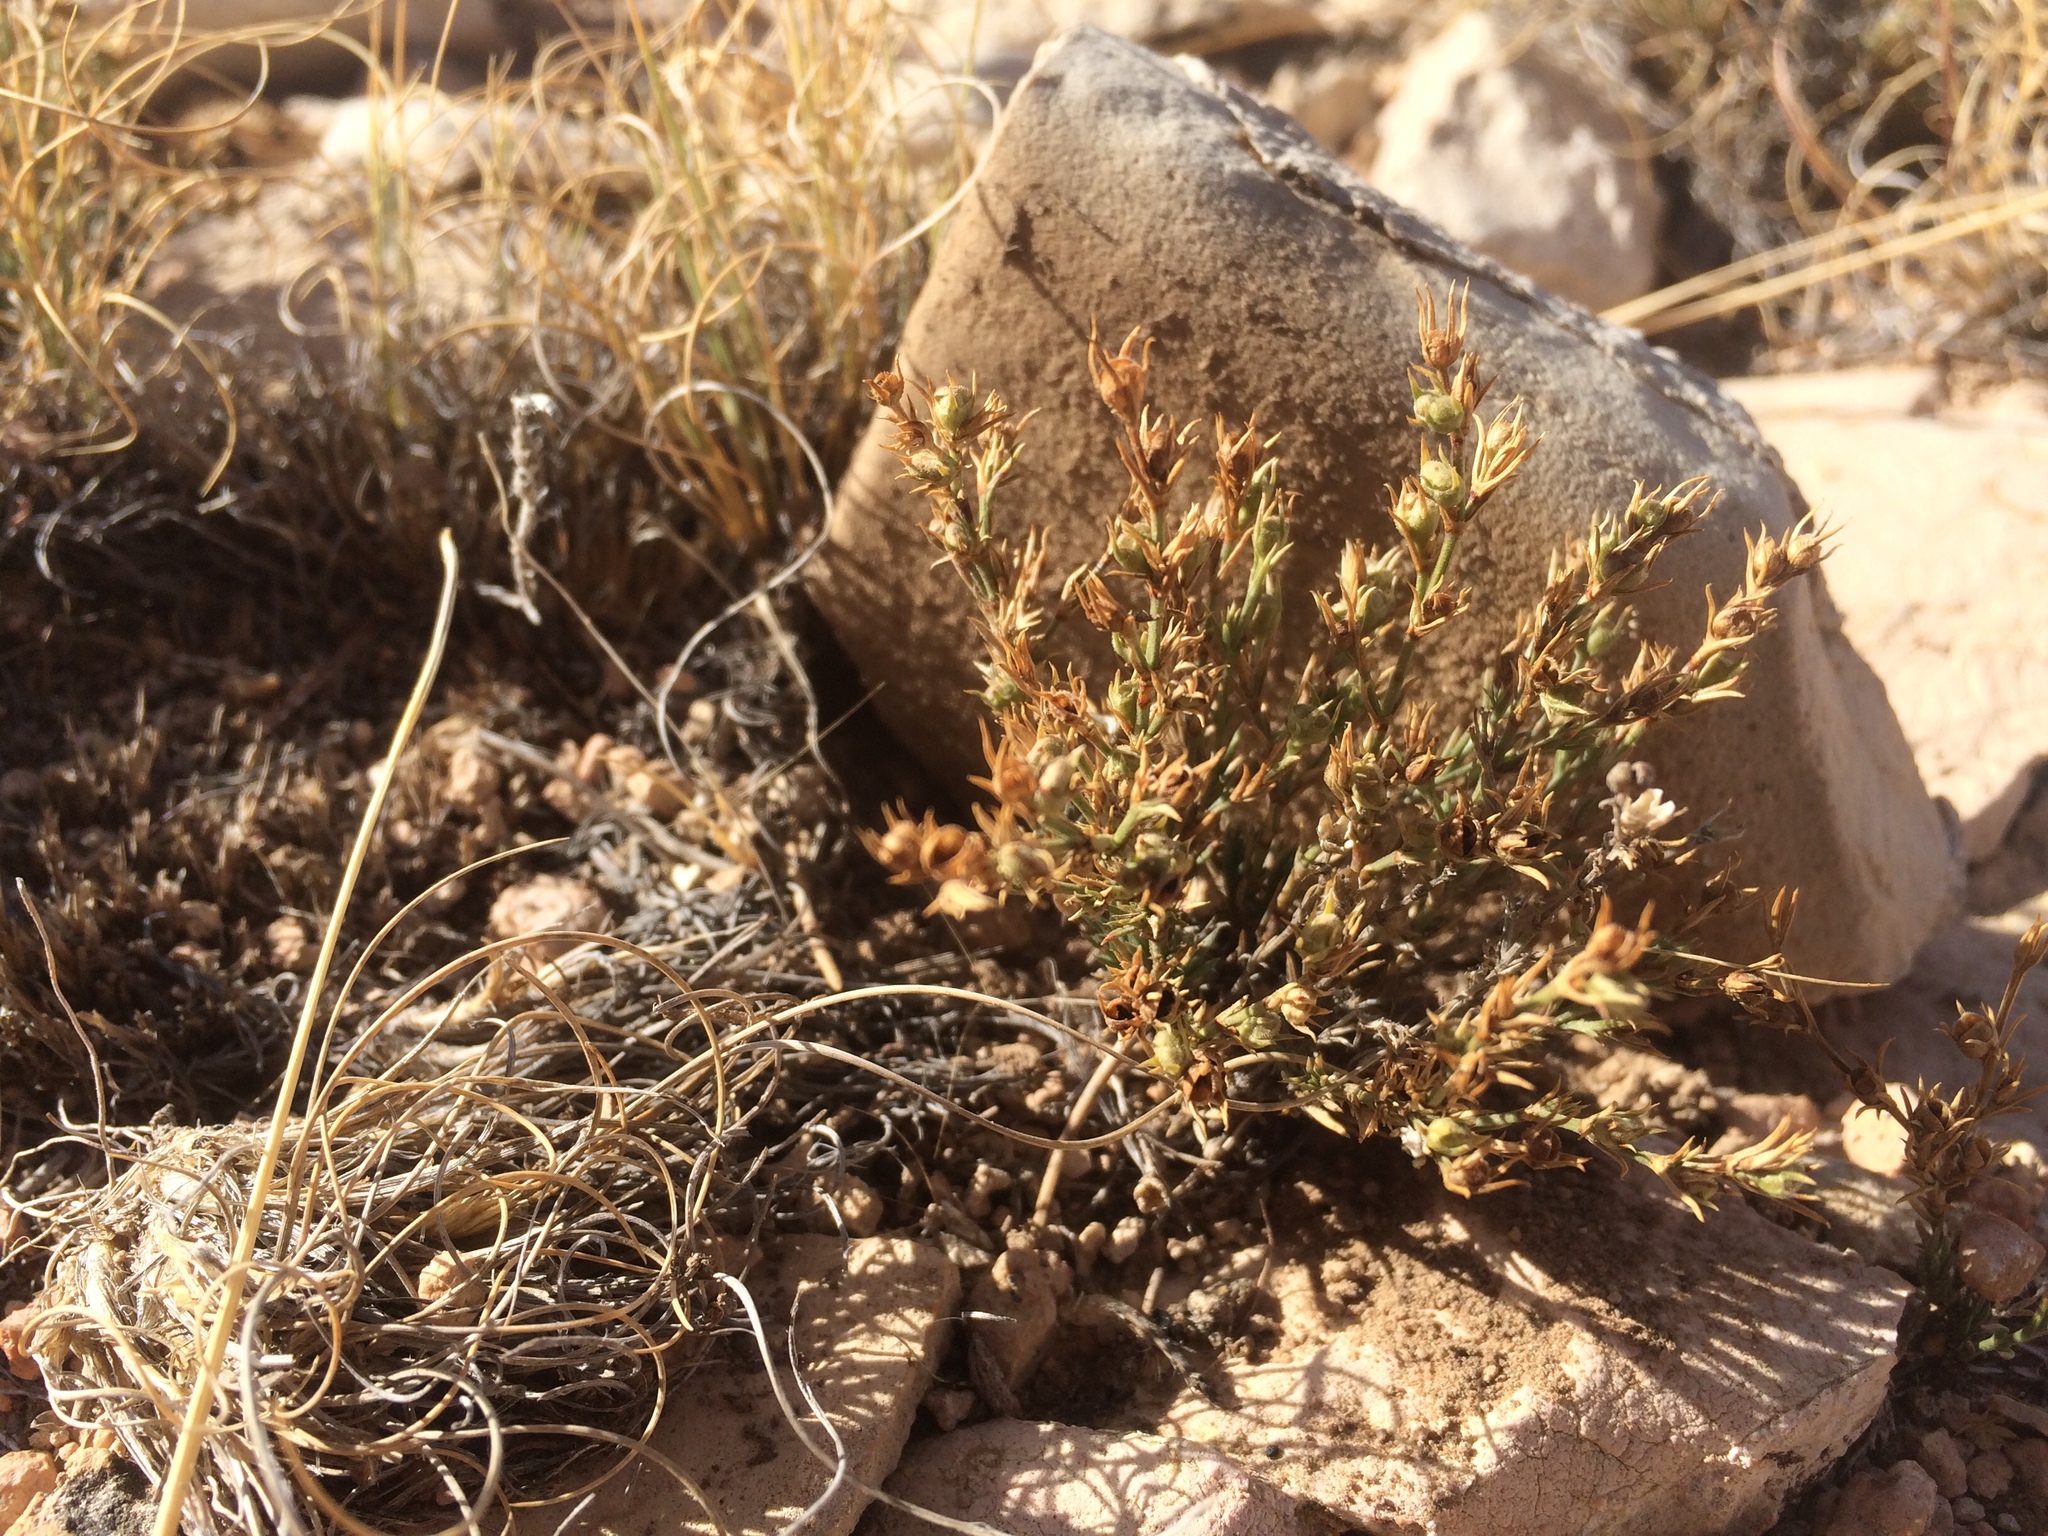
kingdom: Plantae
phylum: Tracheophyta
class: Magnoliopsida
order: Gentianales
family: Rubiaceae
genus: Houstonia
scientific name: Houstonia acerosa
